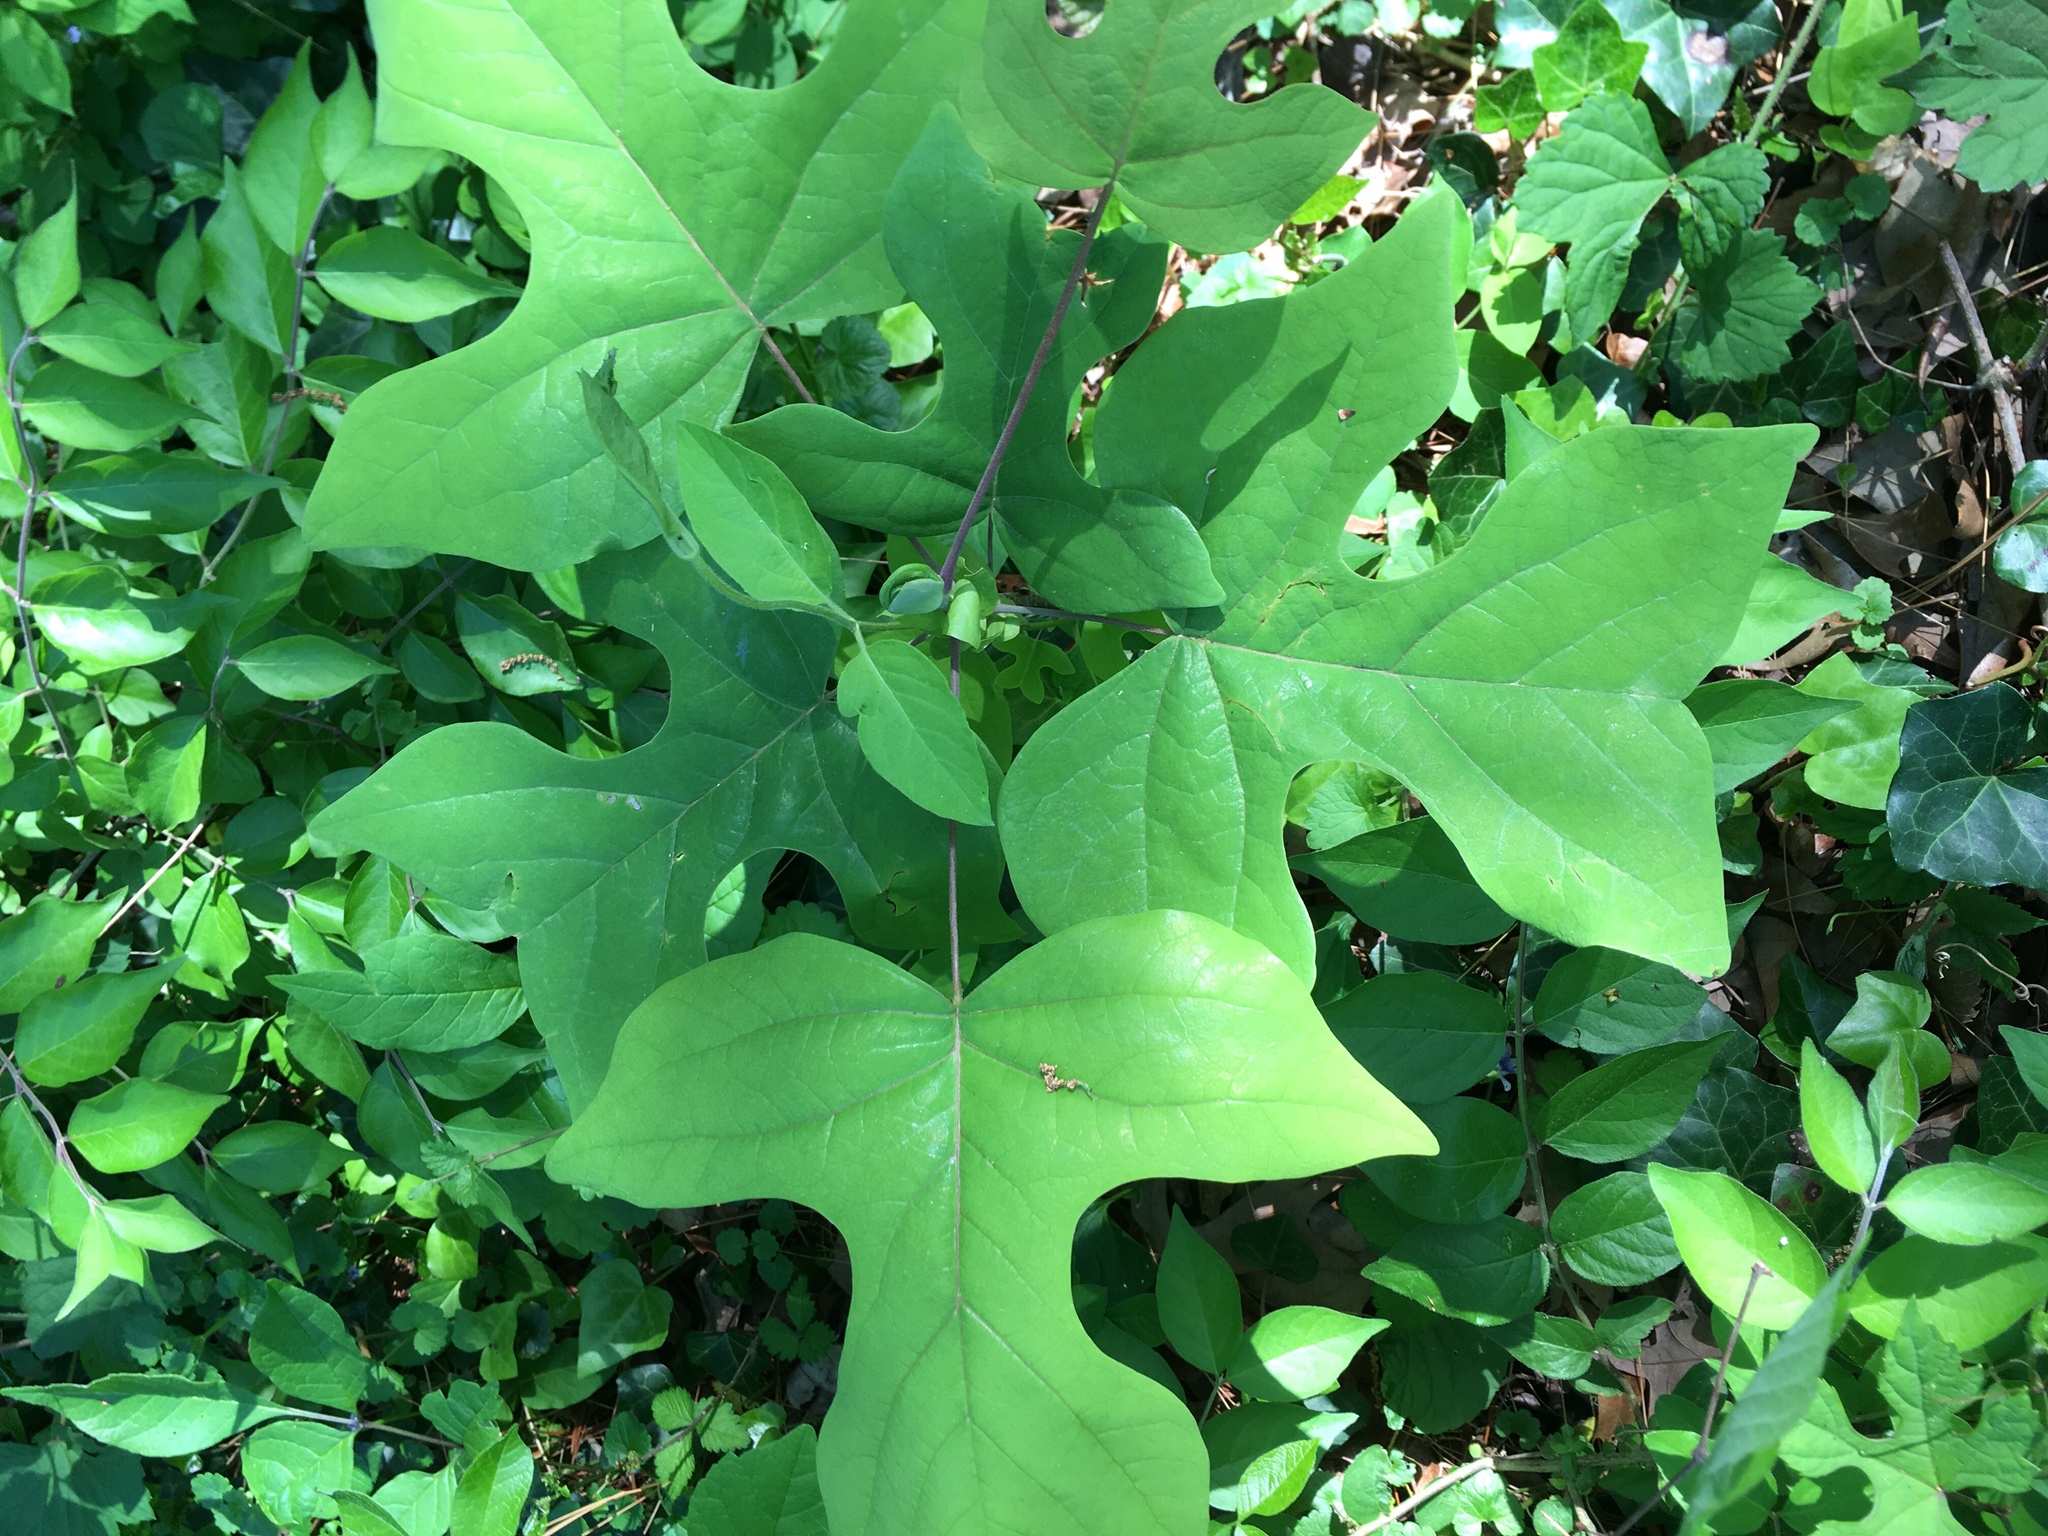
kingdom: Plantae
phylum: Tracheophyta
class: Magnoliopsida
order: Magnoliales
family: Magnoliaceae
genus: Liriodendron
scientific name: Liriodendron tulipifera
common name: Tulip tree
